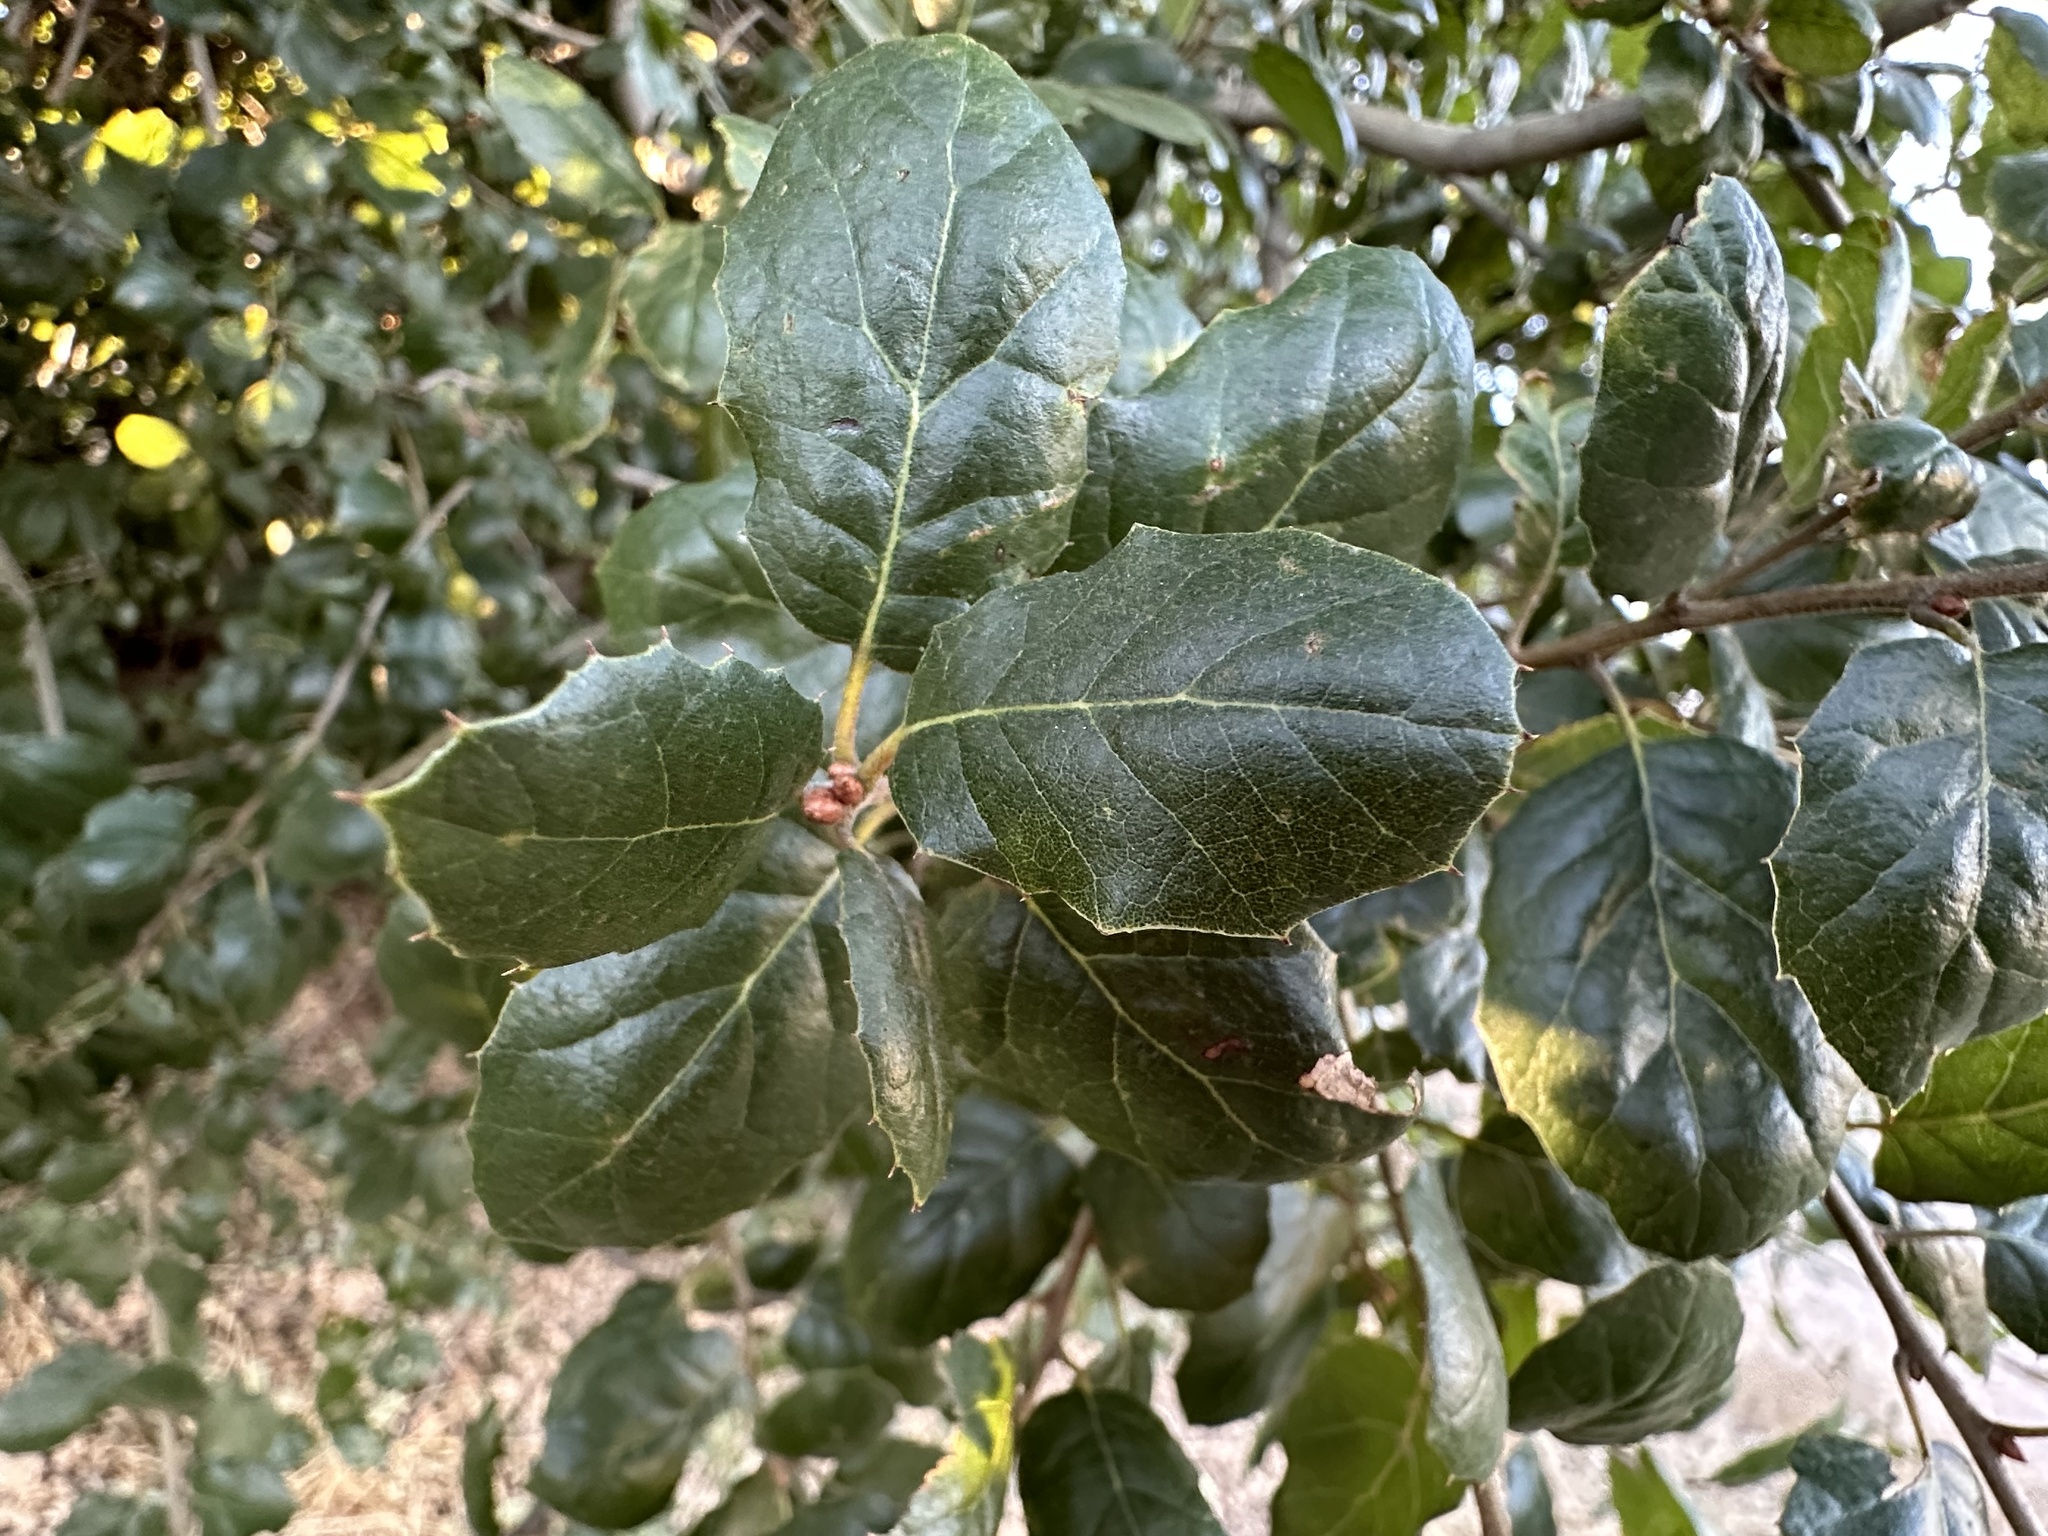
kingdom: Plantae
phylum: Tracheophyta
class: Magnoliopsida
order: Fagales
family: Fagaceae
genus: Quercus
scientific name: Quercus agrifolia
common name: California live oak
